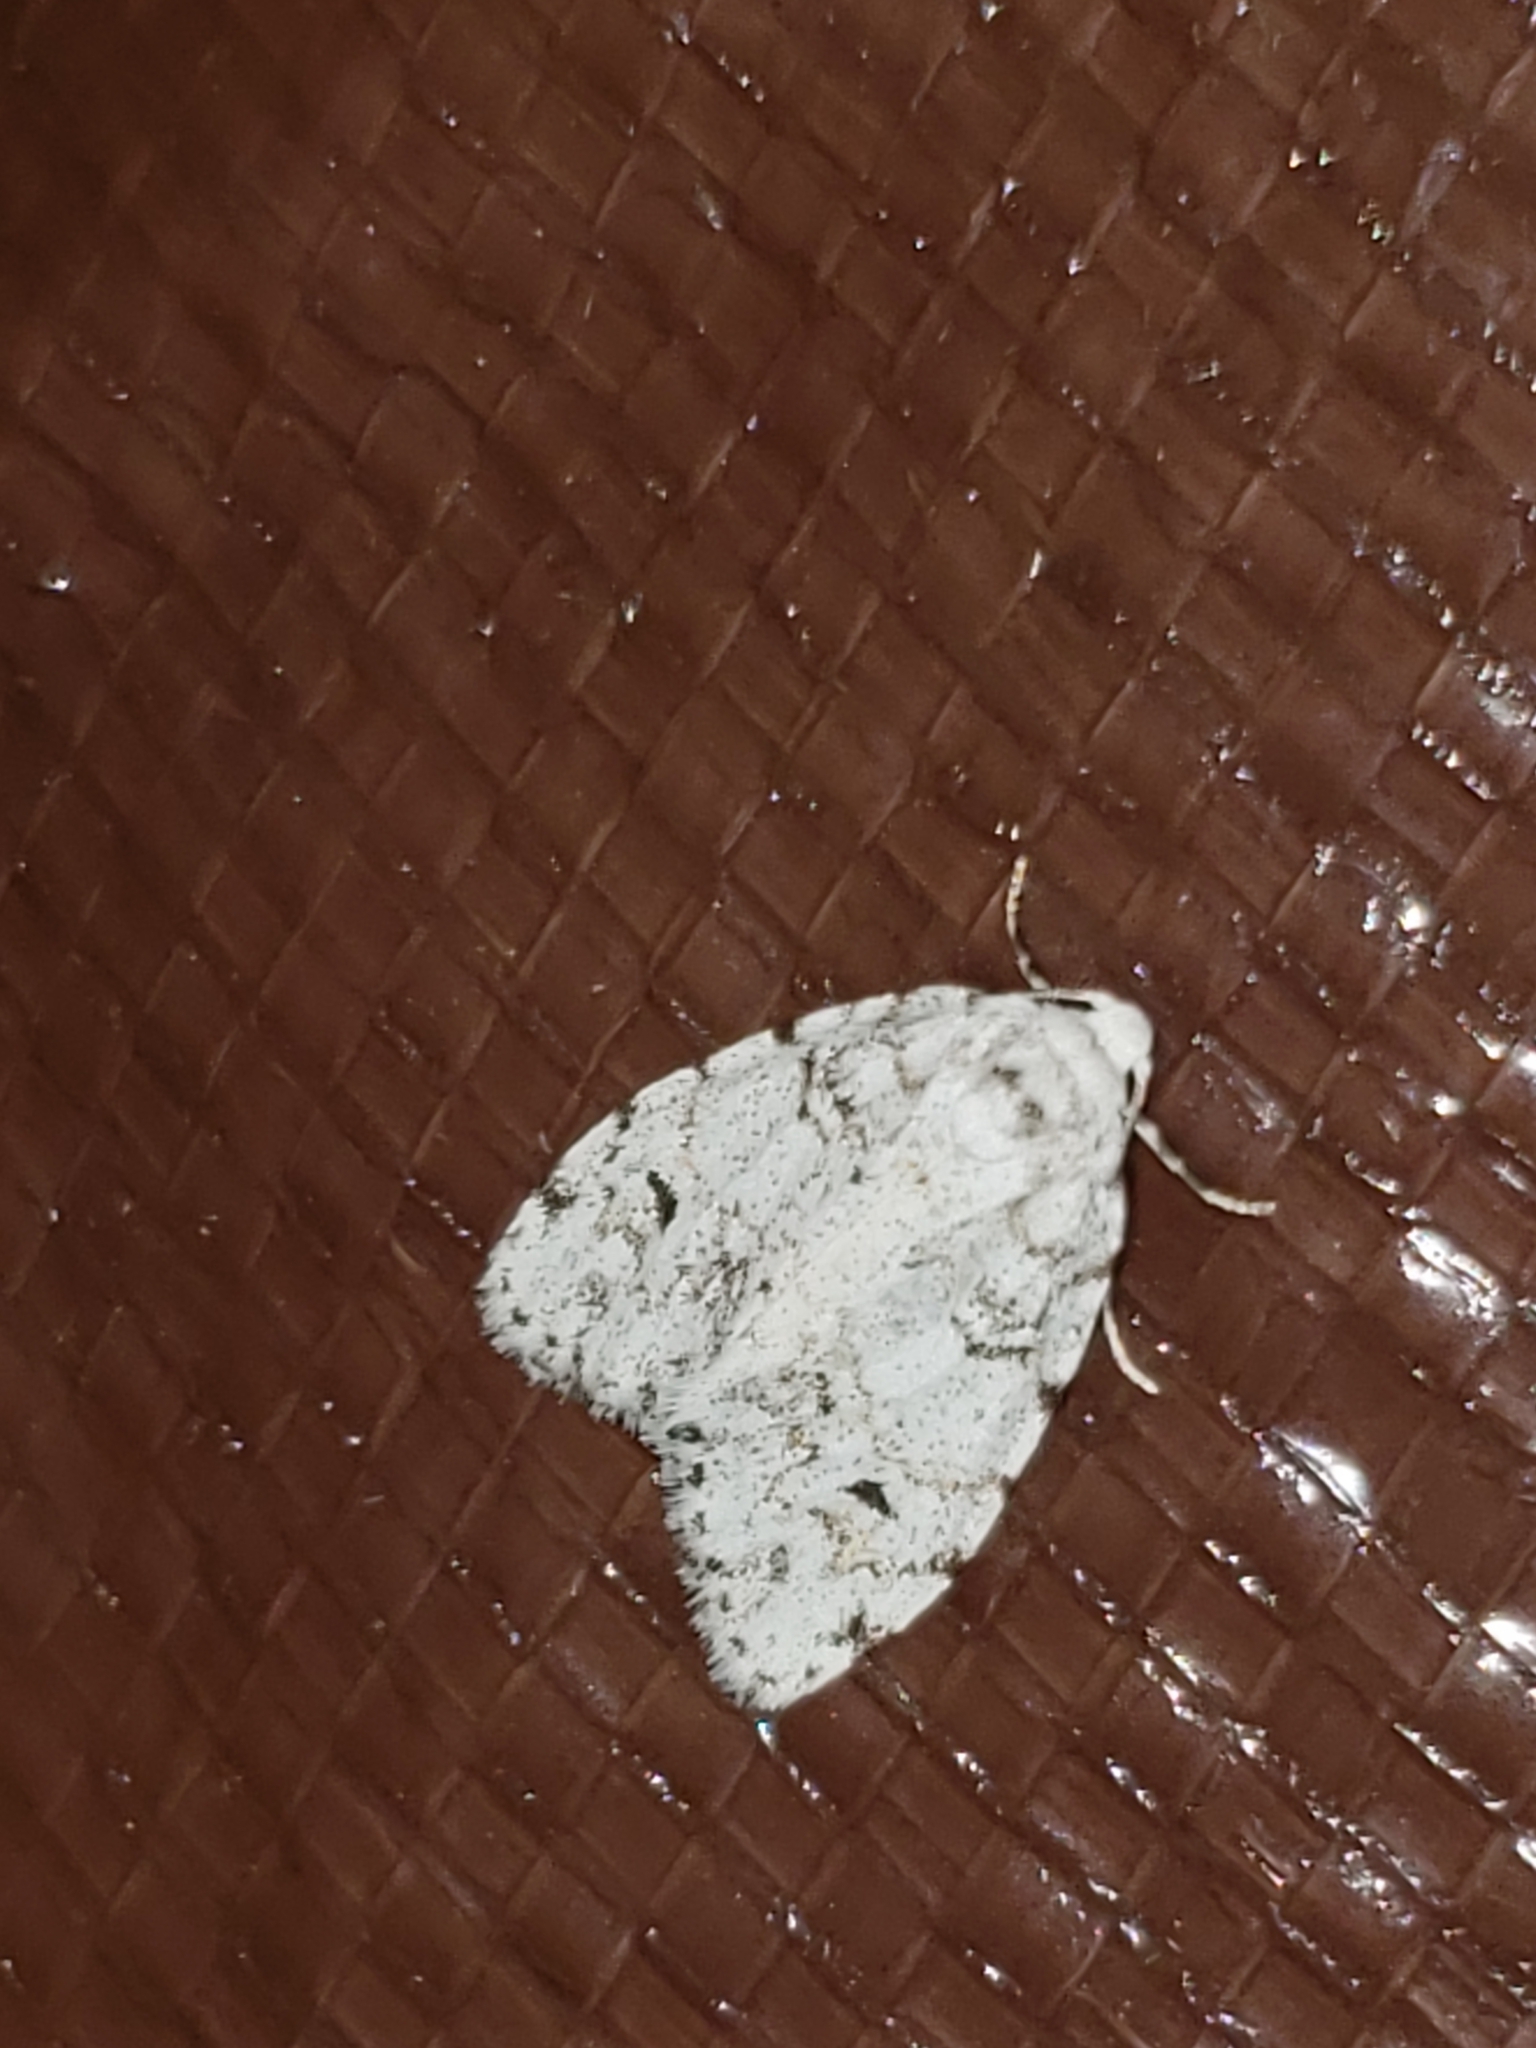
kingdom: Animalia
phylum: Arthropoda
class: Insecta
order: Lepidoptera
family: Erebidae
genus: Clemensia
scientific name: Clemensia albata
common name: Little white lichen moth
